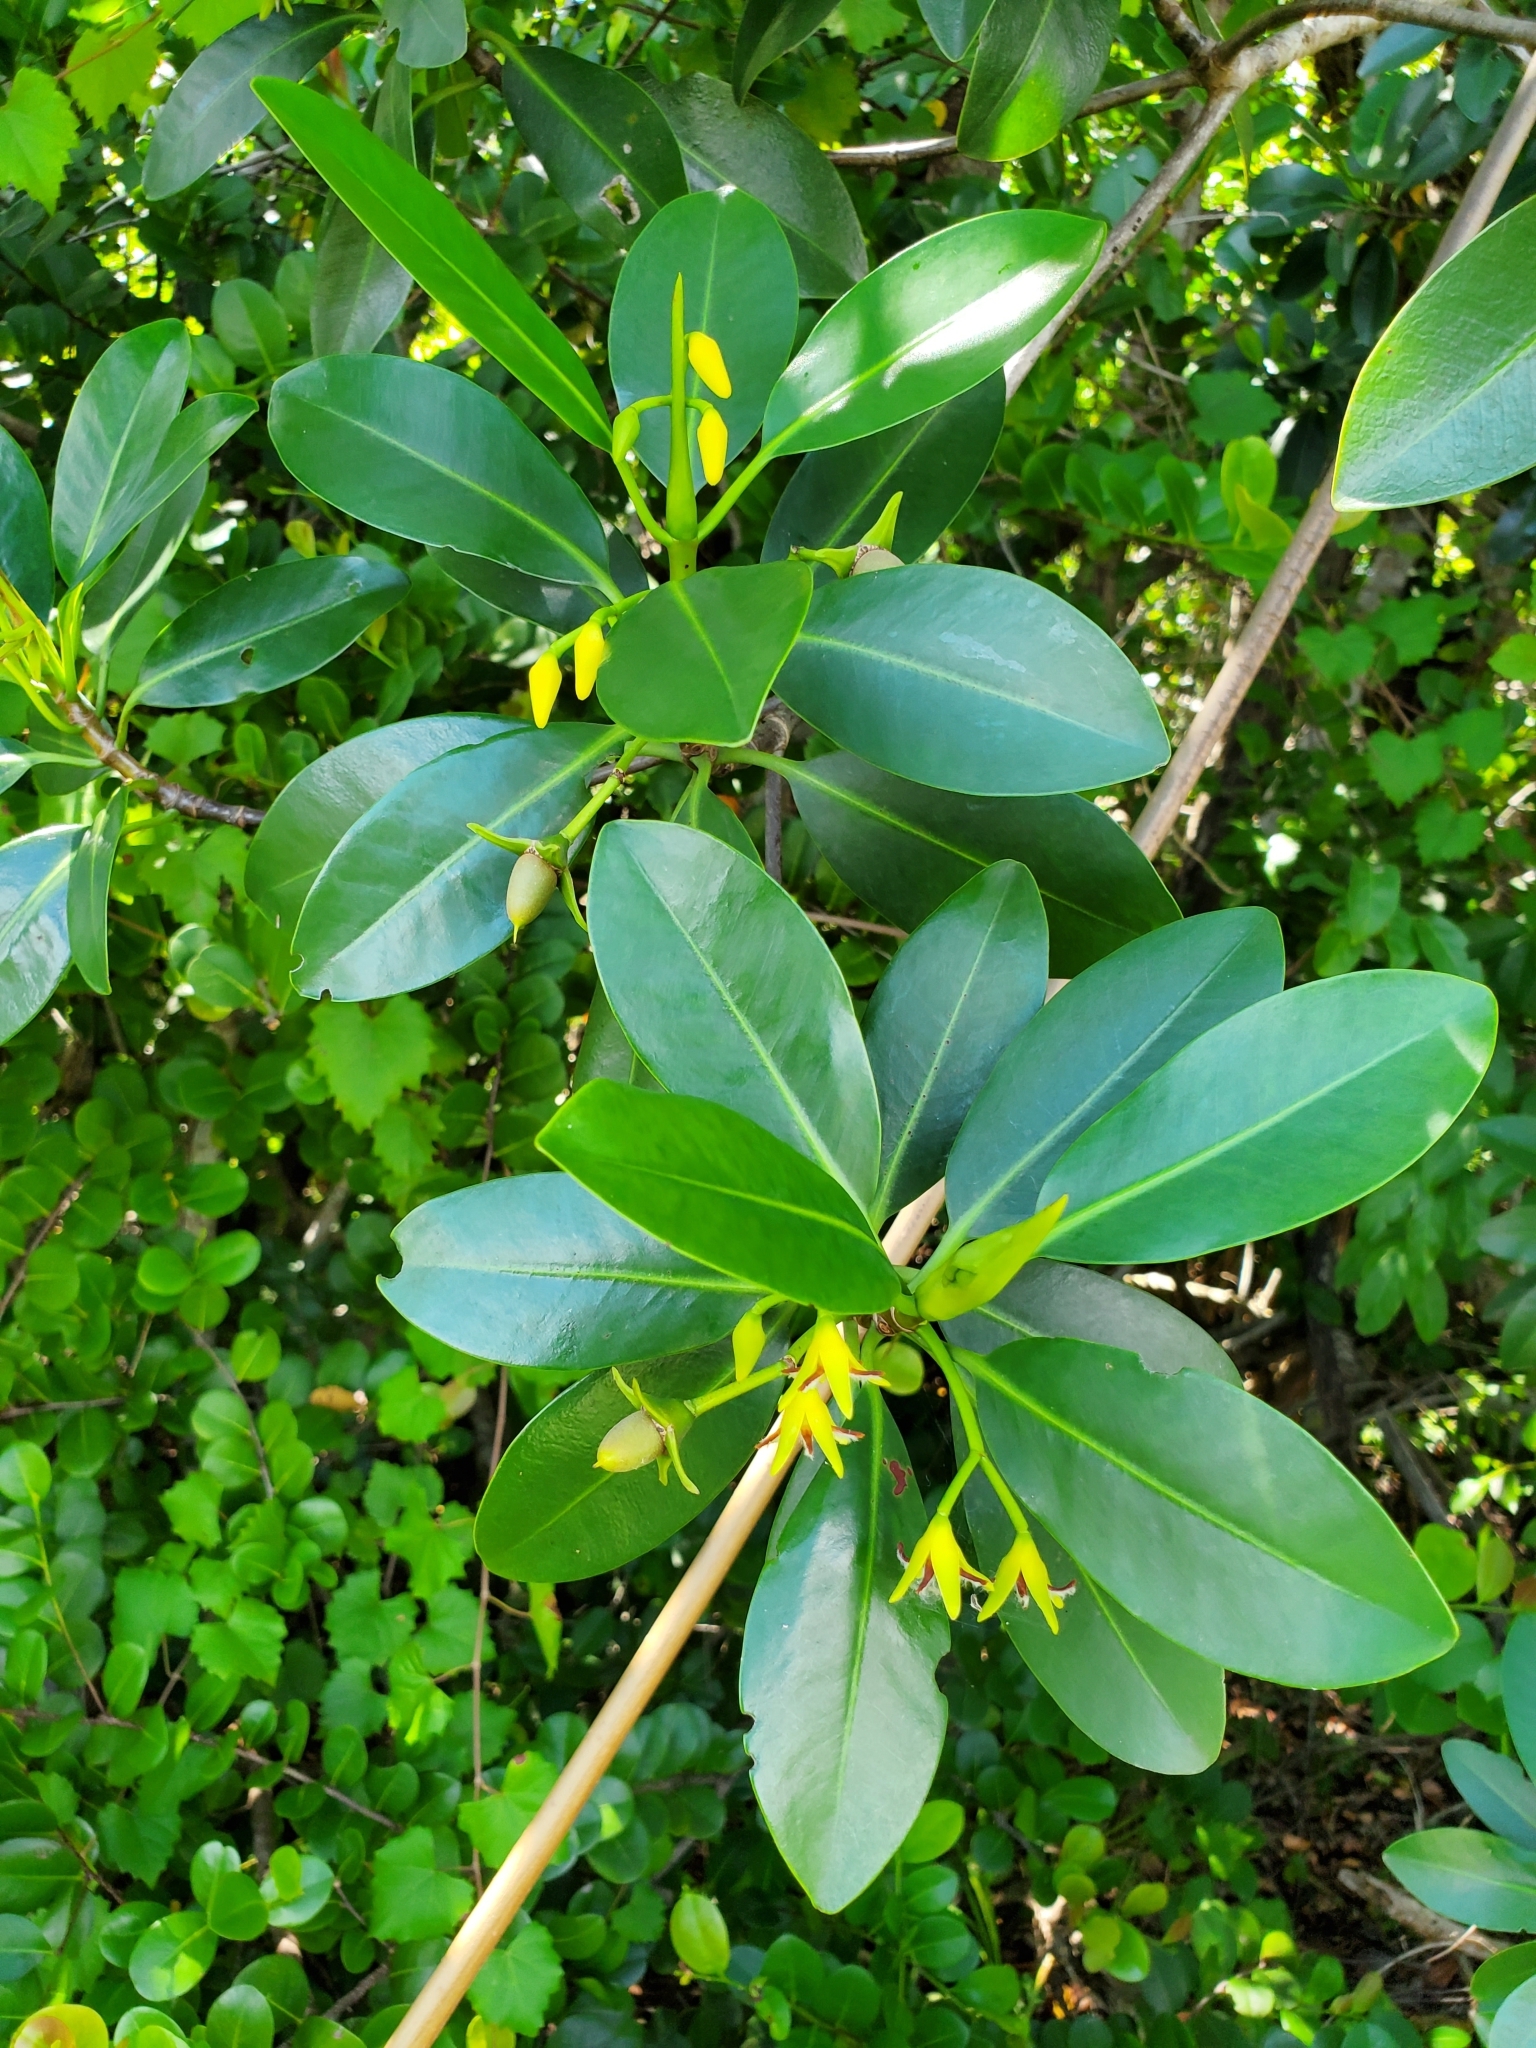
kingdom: Plantae
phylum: Tracheophyta
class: Magnoliopsida
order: Malpighiales
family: Rhizophoraceae
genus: Rhizophora
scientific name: Rhizophora mangle
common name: Red mangrove
